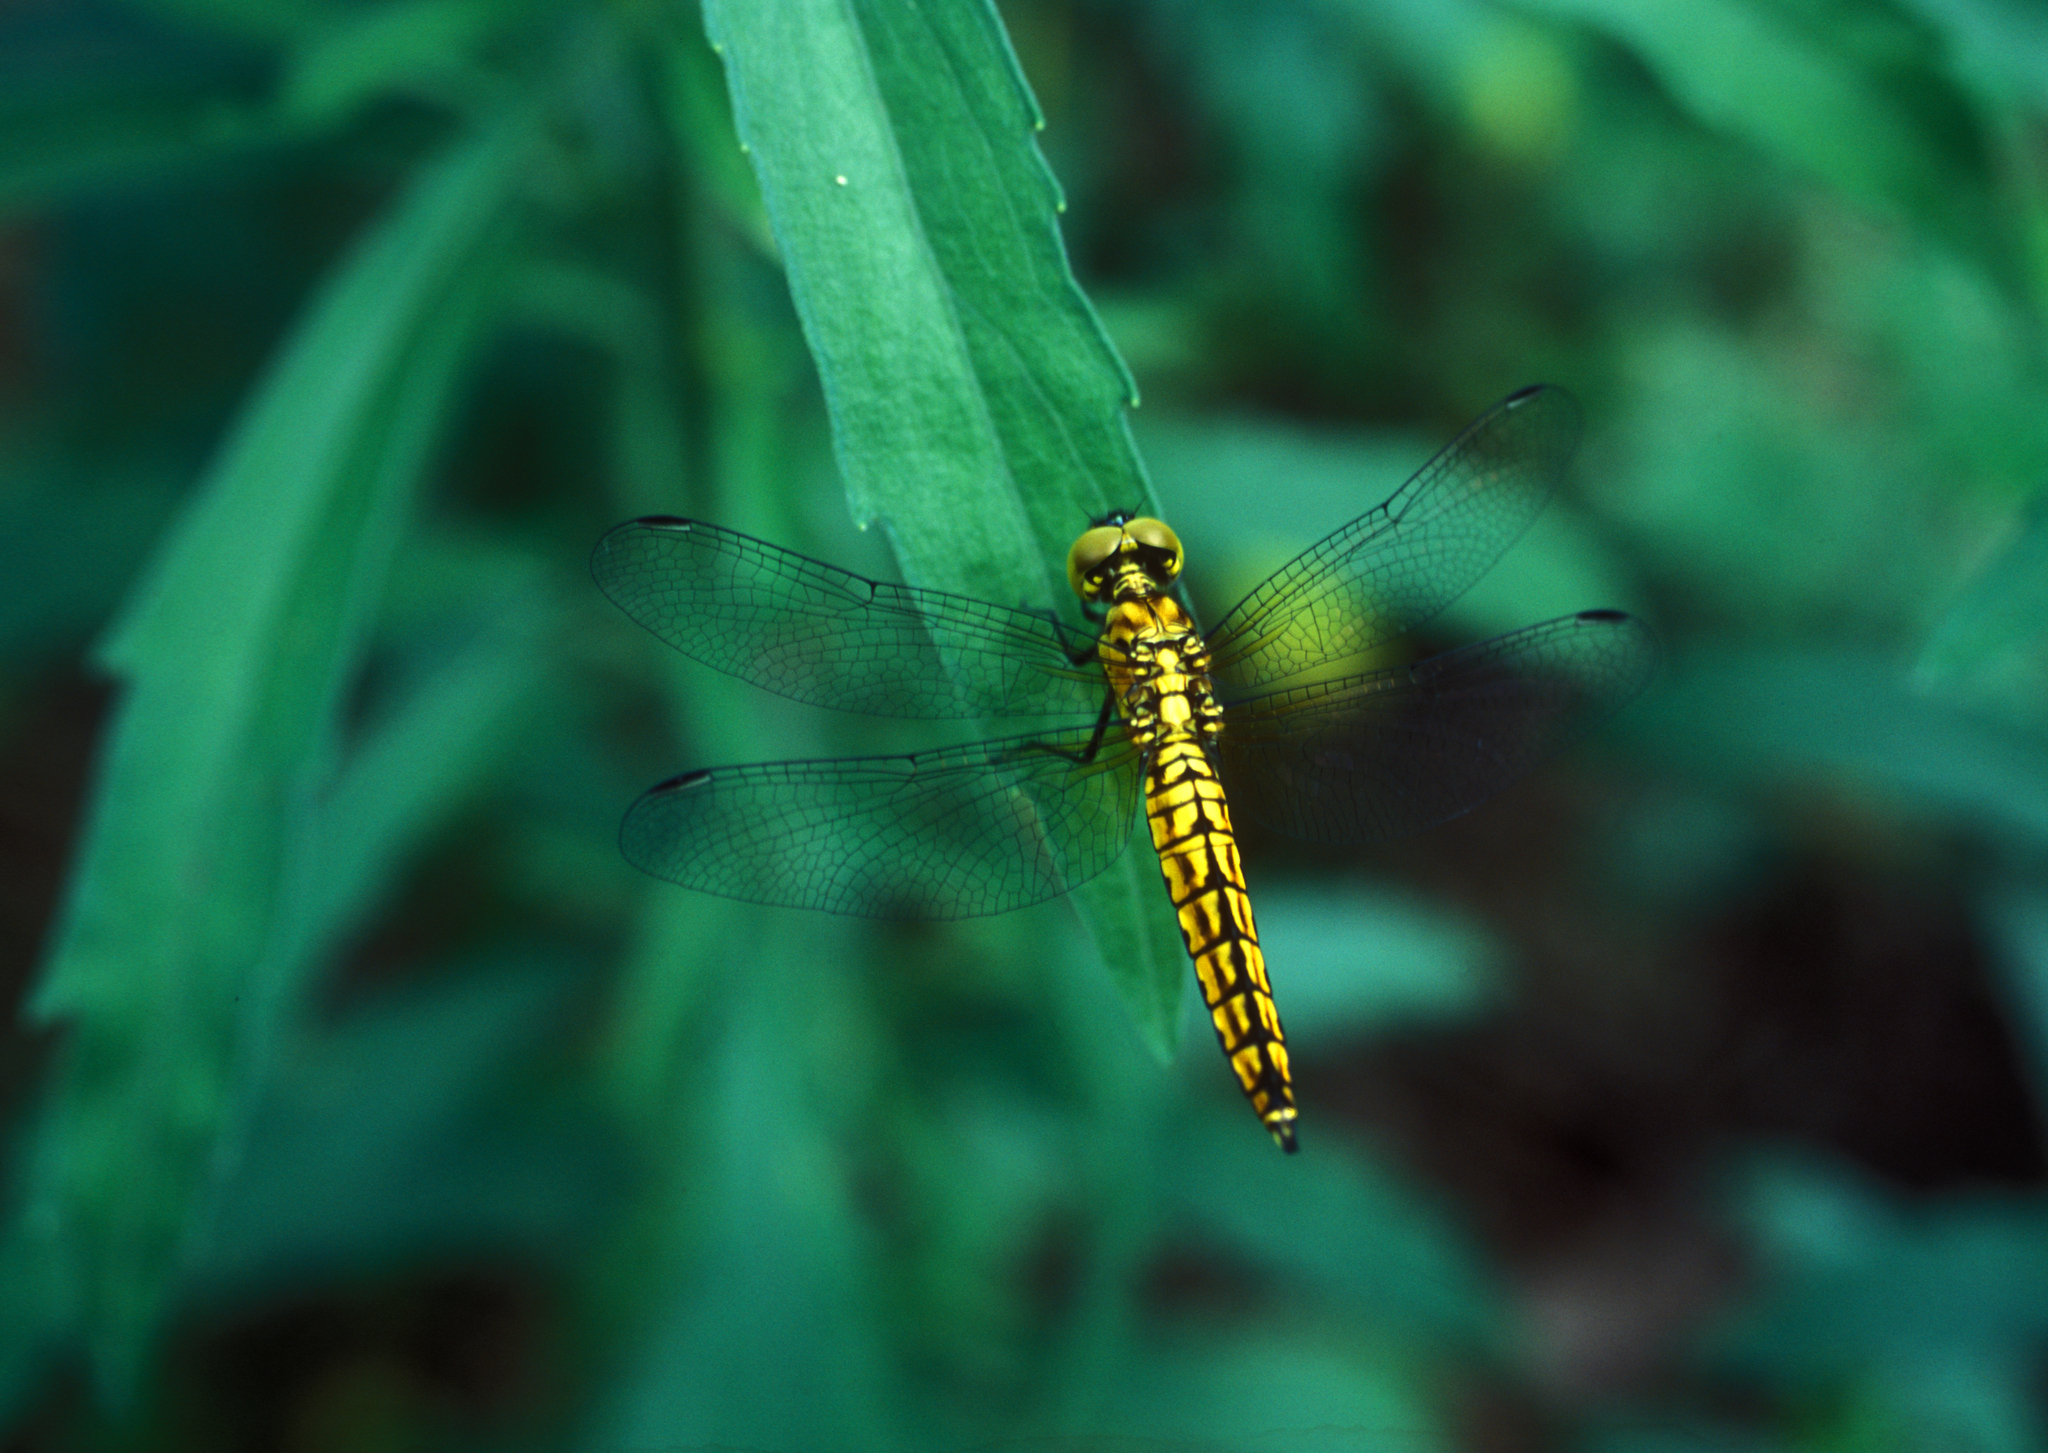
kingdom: Animalia
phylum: Arthropoda
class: Insecta
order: Odonata
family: Libellulidae
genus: Lyriothemis
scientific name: Lyriothemis pachygastra
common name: Wide-bellied skimmer
